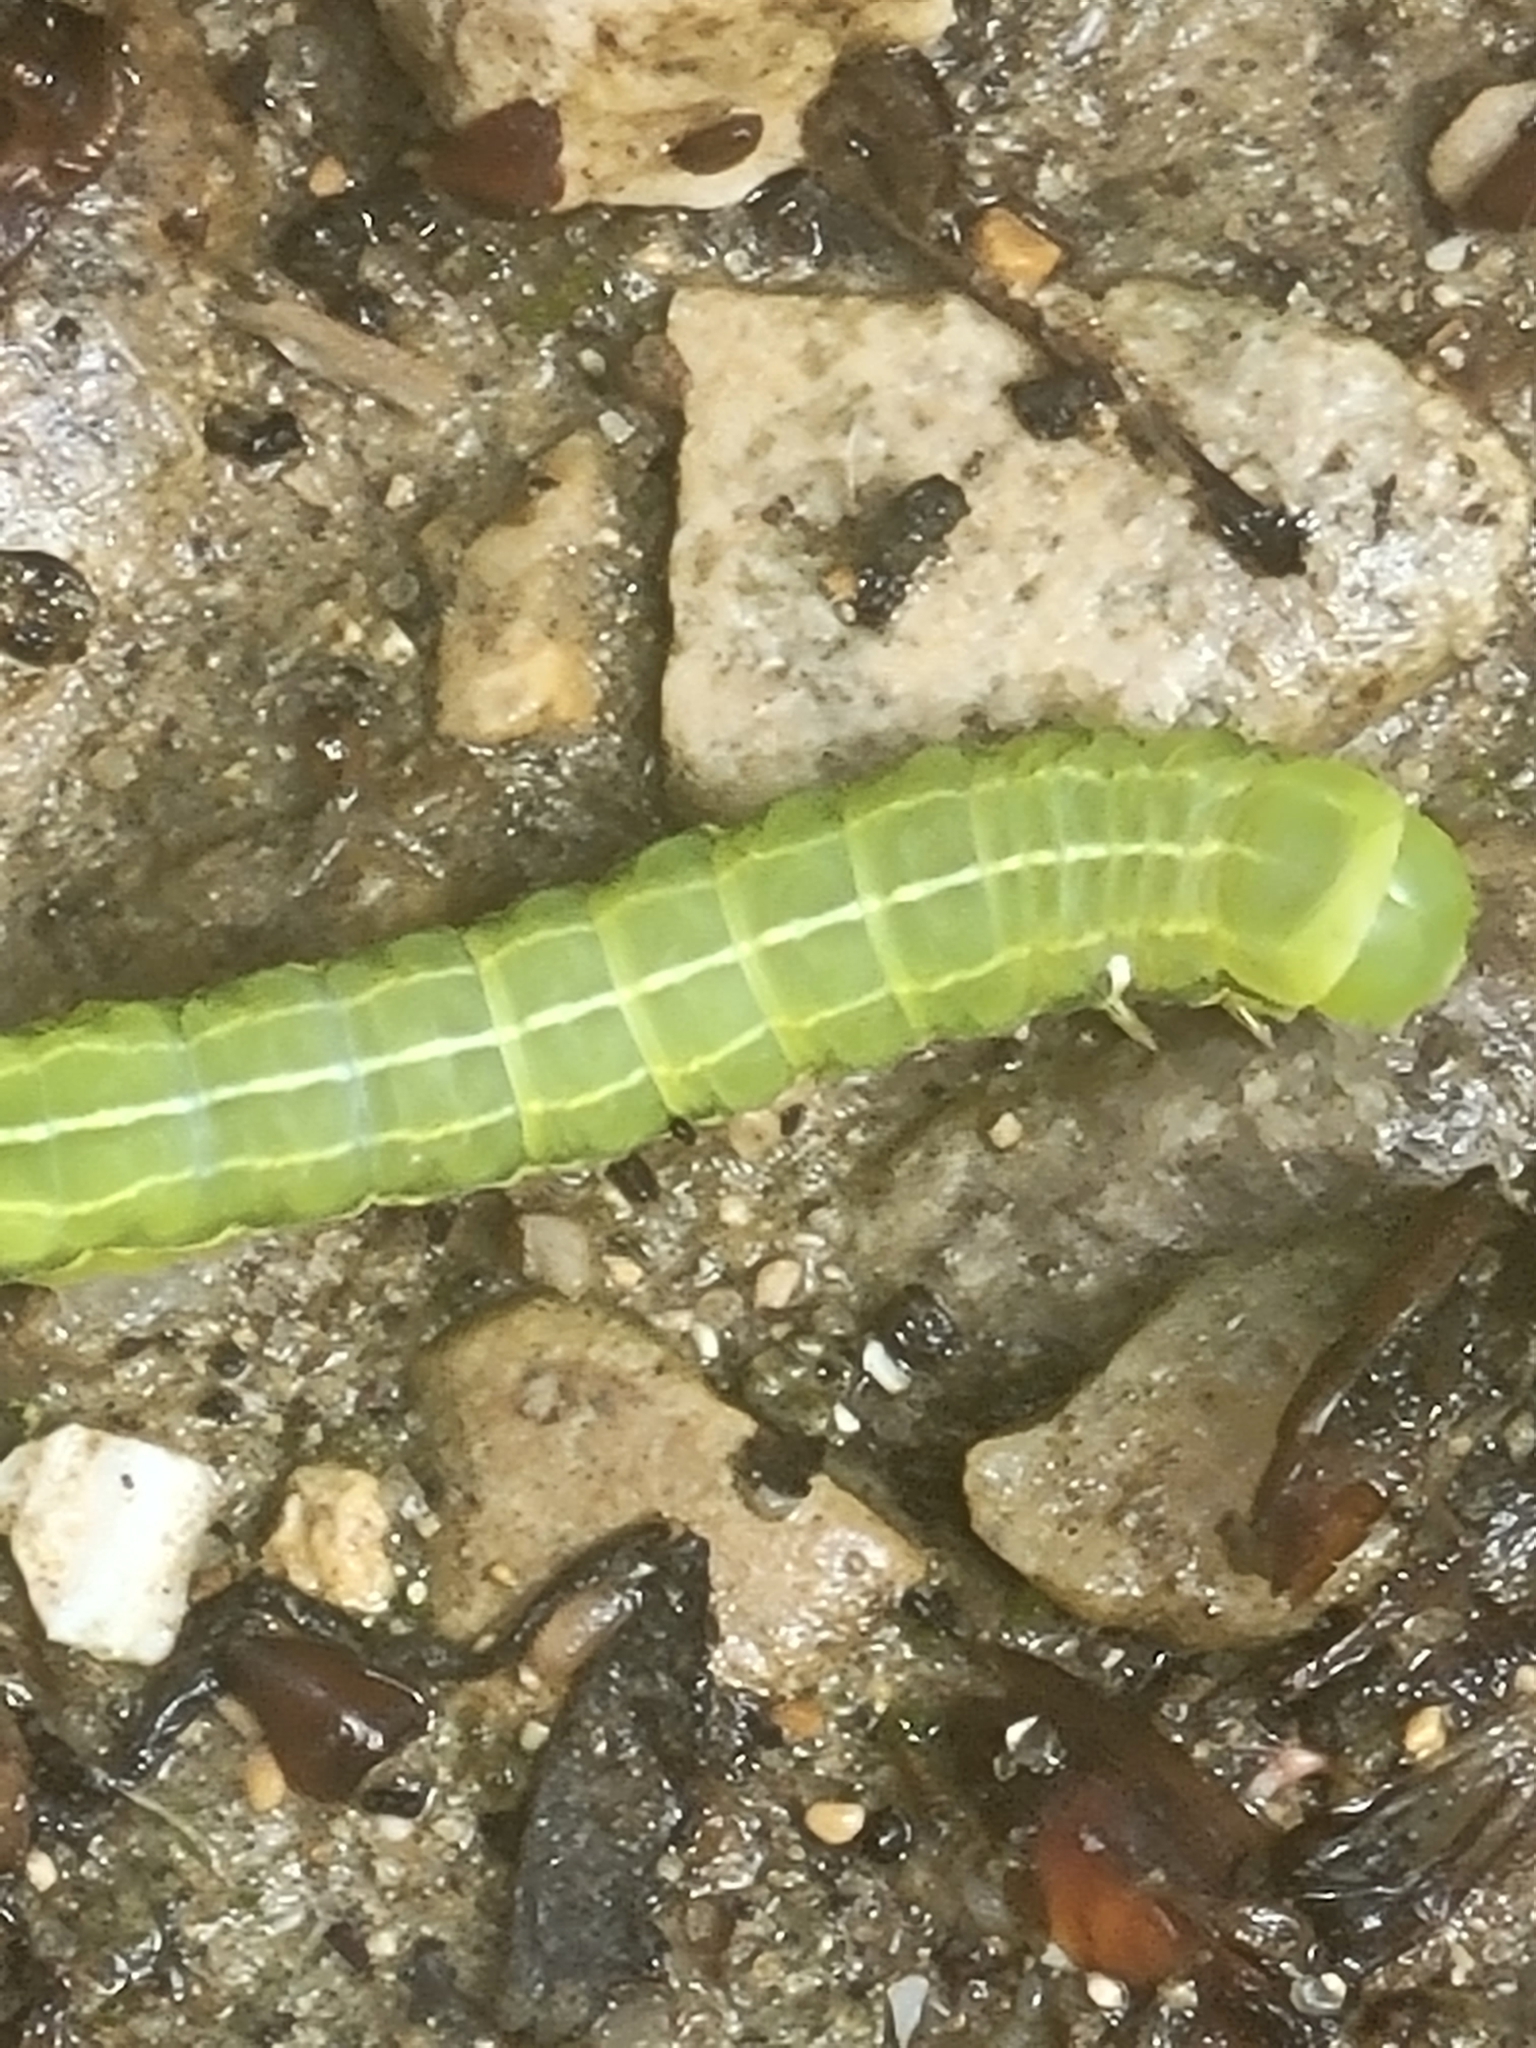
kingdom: Animalia
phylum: Arthropoda
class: Insecta
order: Lepidoptera
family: Noctuidae
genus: Asteroscopus
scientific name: Asteroscopus sphinx
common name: The sprawler
